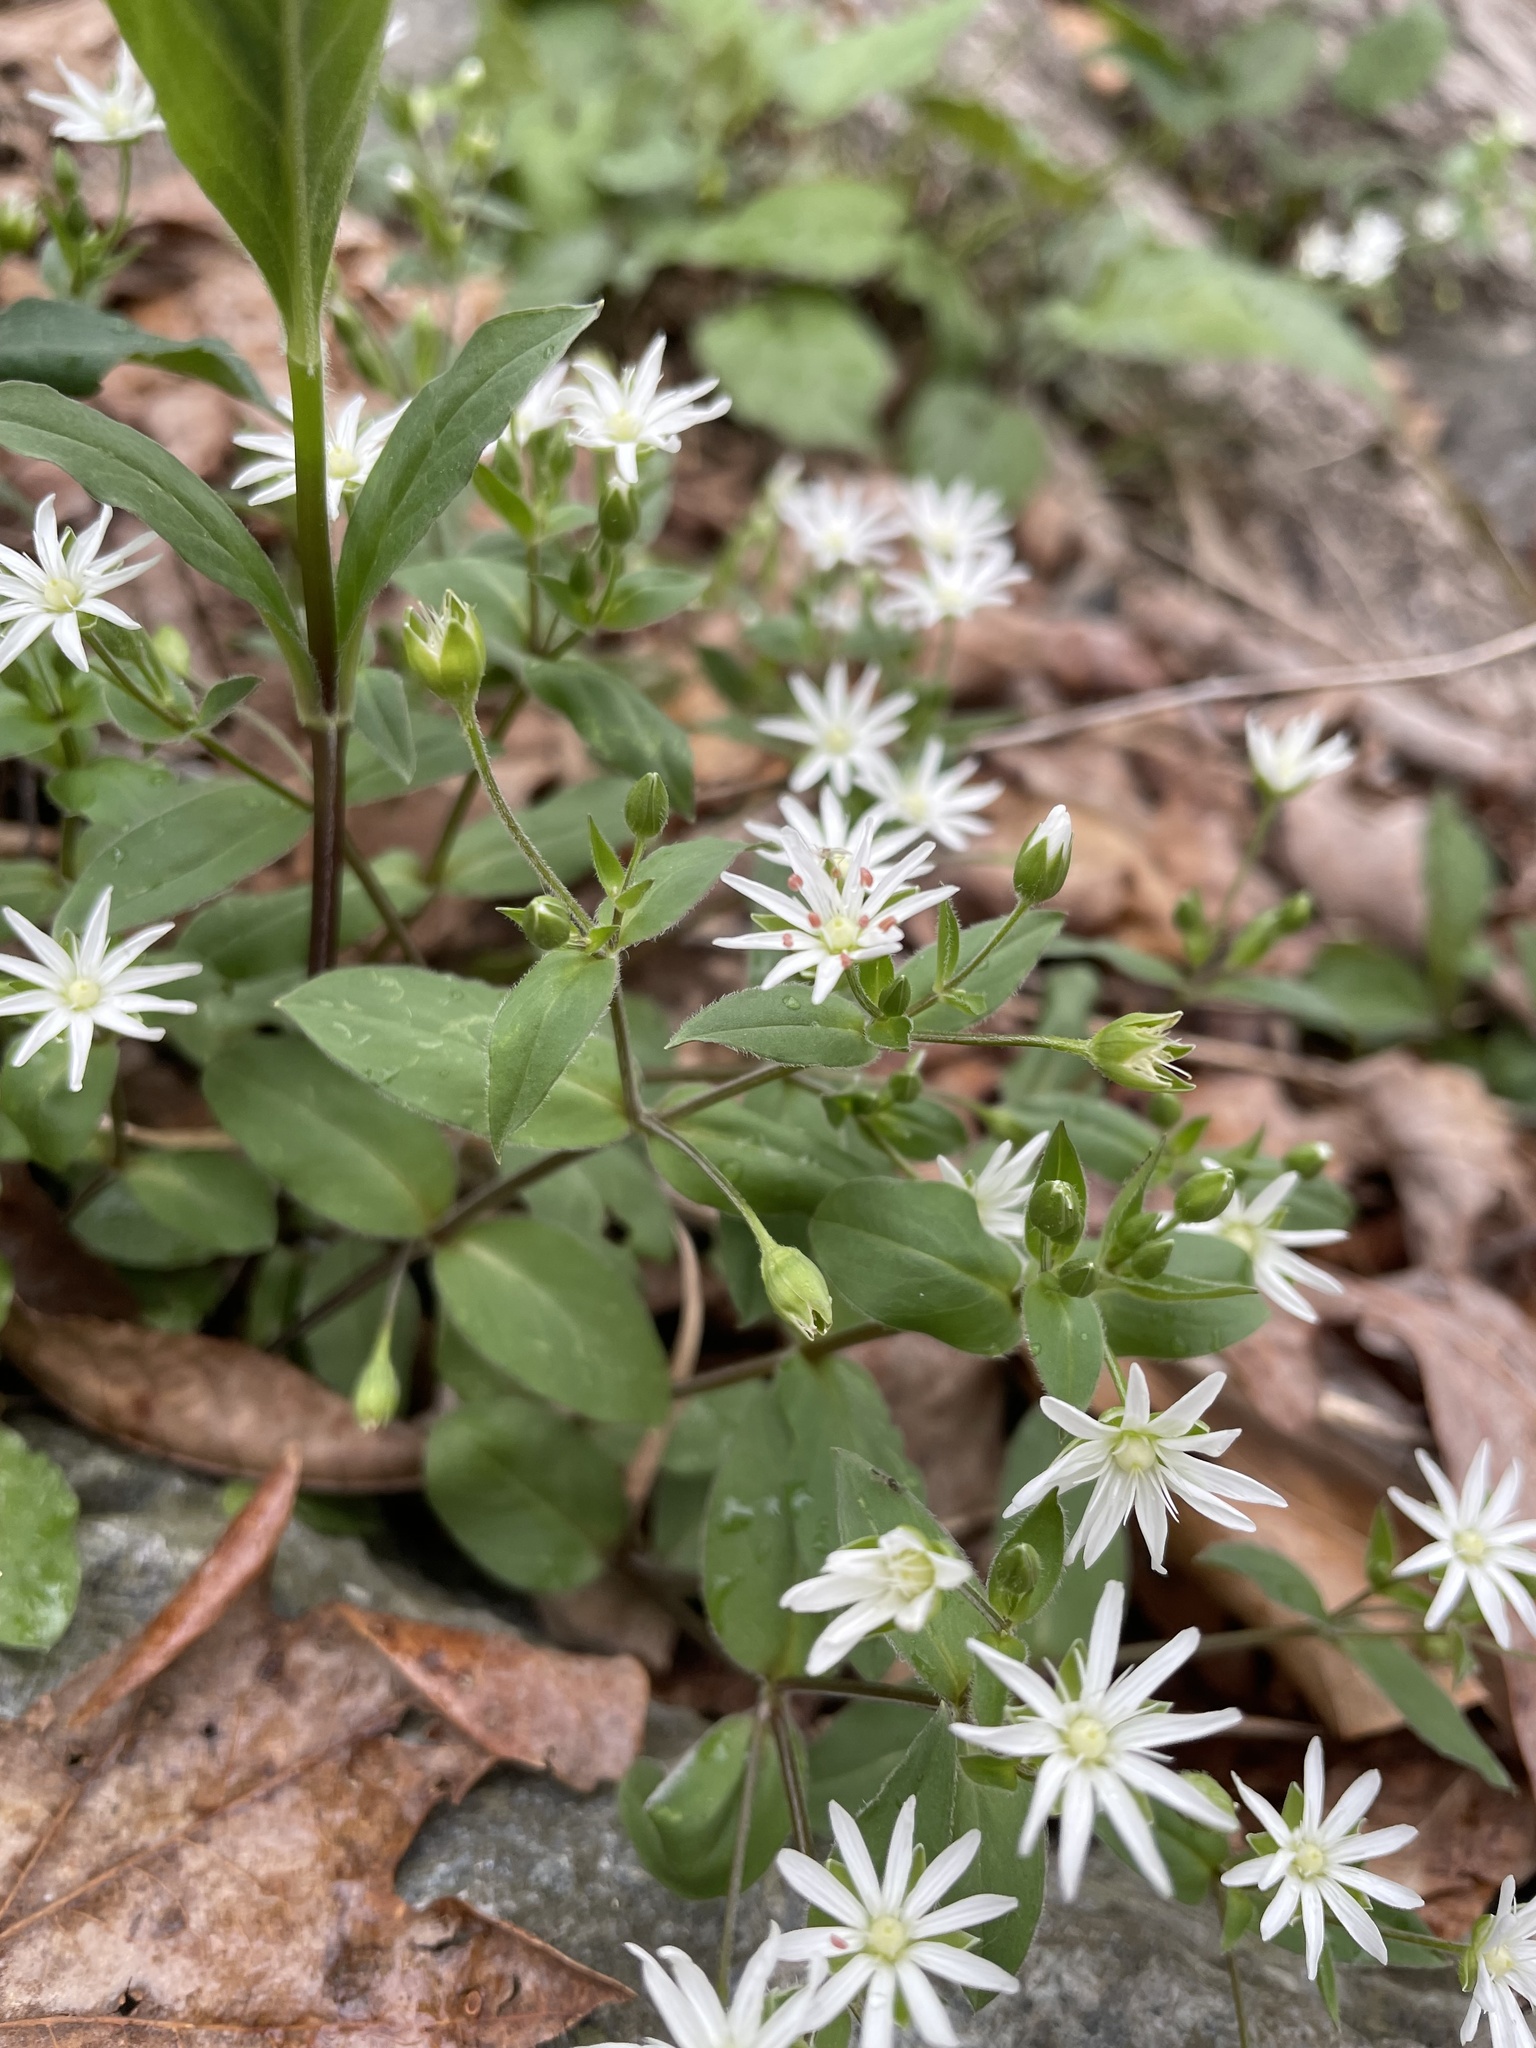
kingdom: Plantae
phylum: Tracheophyta
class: Magnoliopsida
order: Caryophyllales
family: Caryophyllaceae
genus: Stellaria
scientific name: Stellaria pubera
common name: Star chickweed
